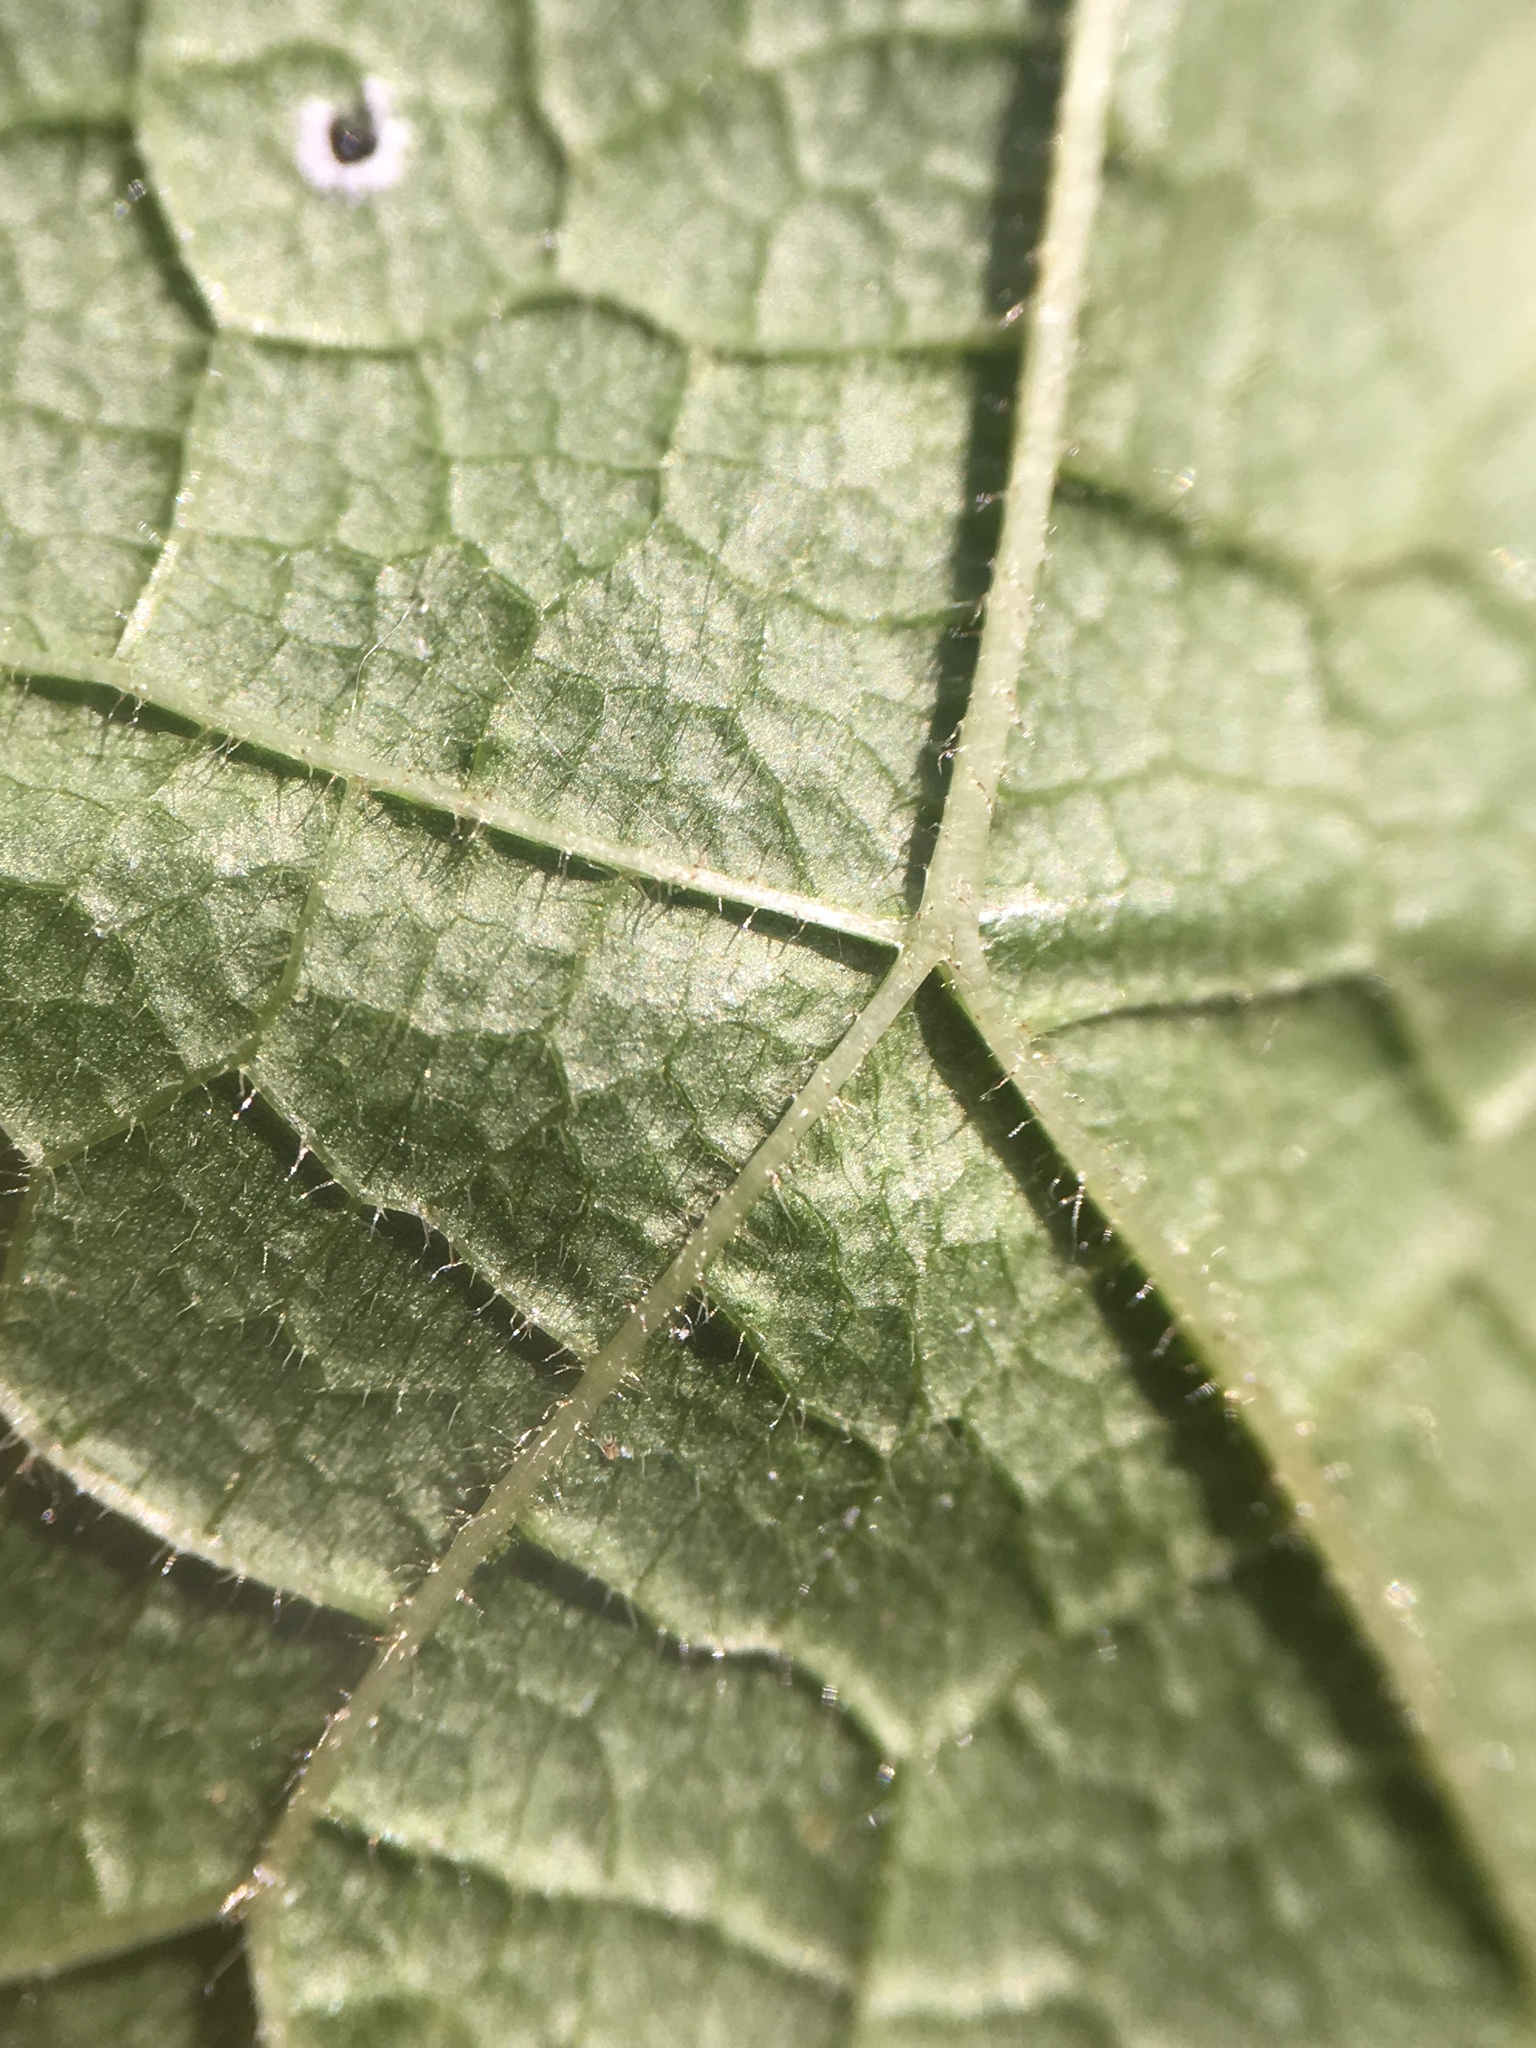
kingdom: Plantae
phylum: Tracheophyta
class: Magnoliopsida
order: Rosales
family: Moraceae
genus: Morus
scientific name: Morus rubra
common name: Red mulberry
